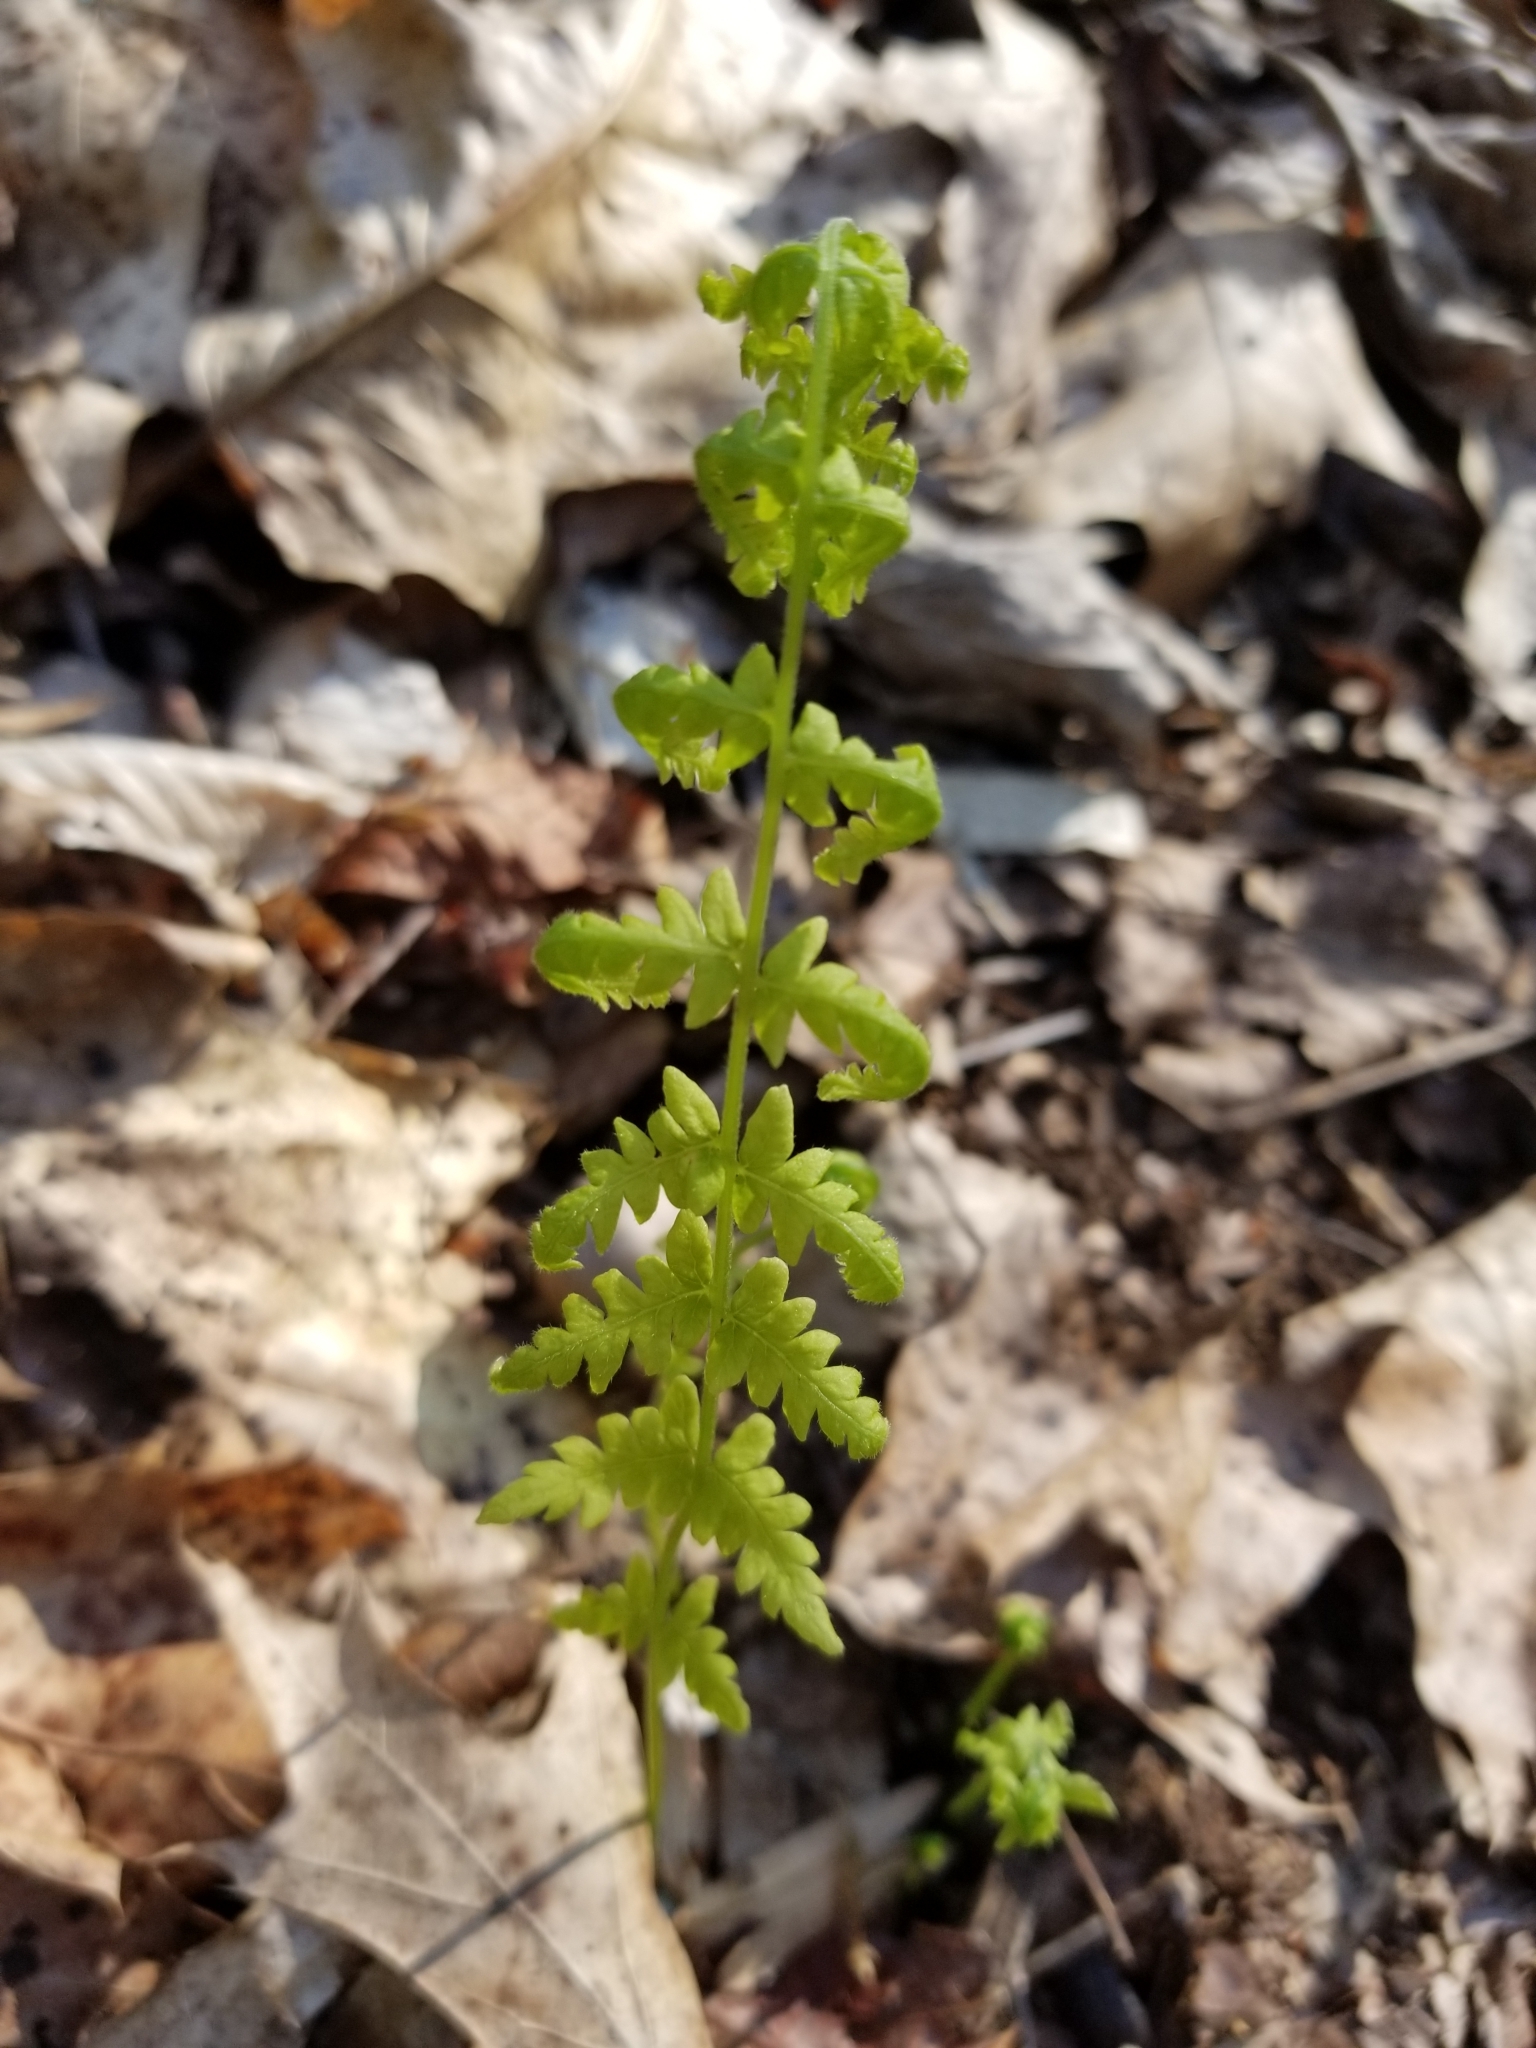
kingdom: Plantae
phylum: Tracheophyta
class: Polypodiopsida
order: Polypodiales
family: Thelypteridaceae
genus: Amauropelta
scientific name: Amauropelta noveboracensis
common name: New york fern
